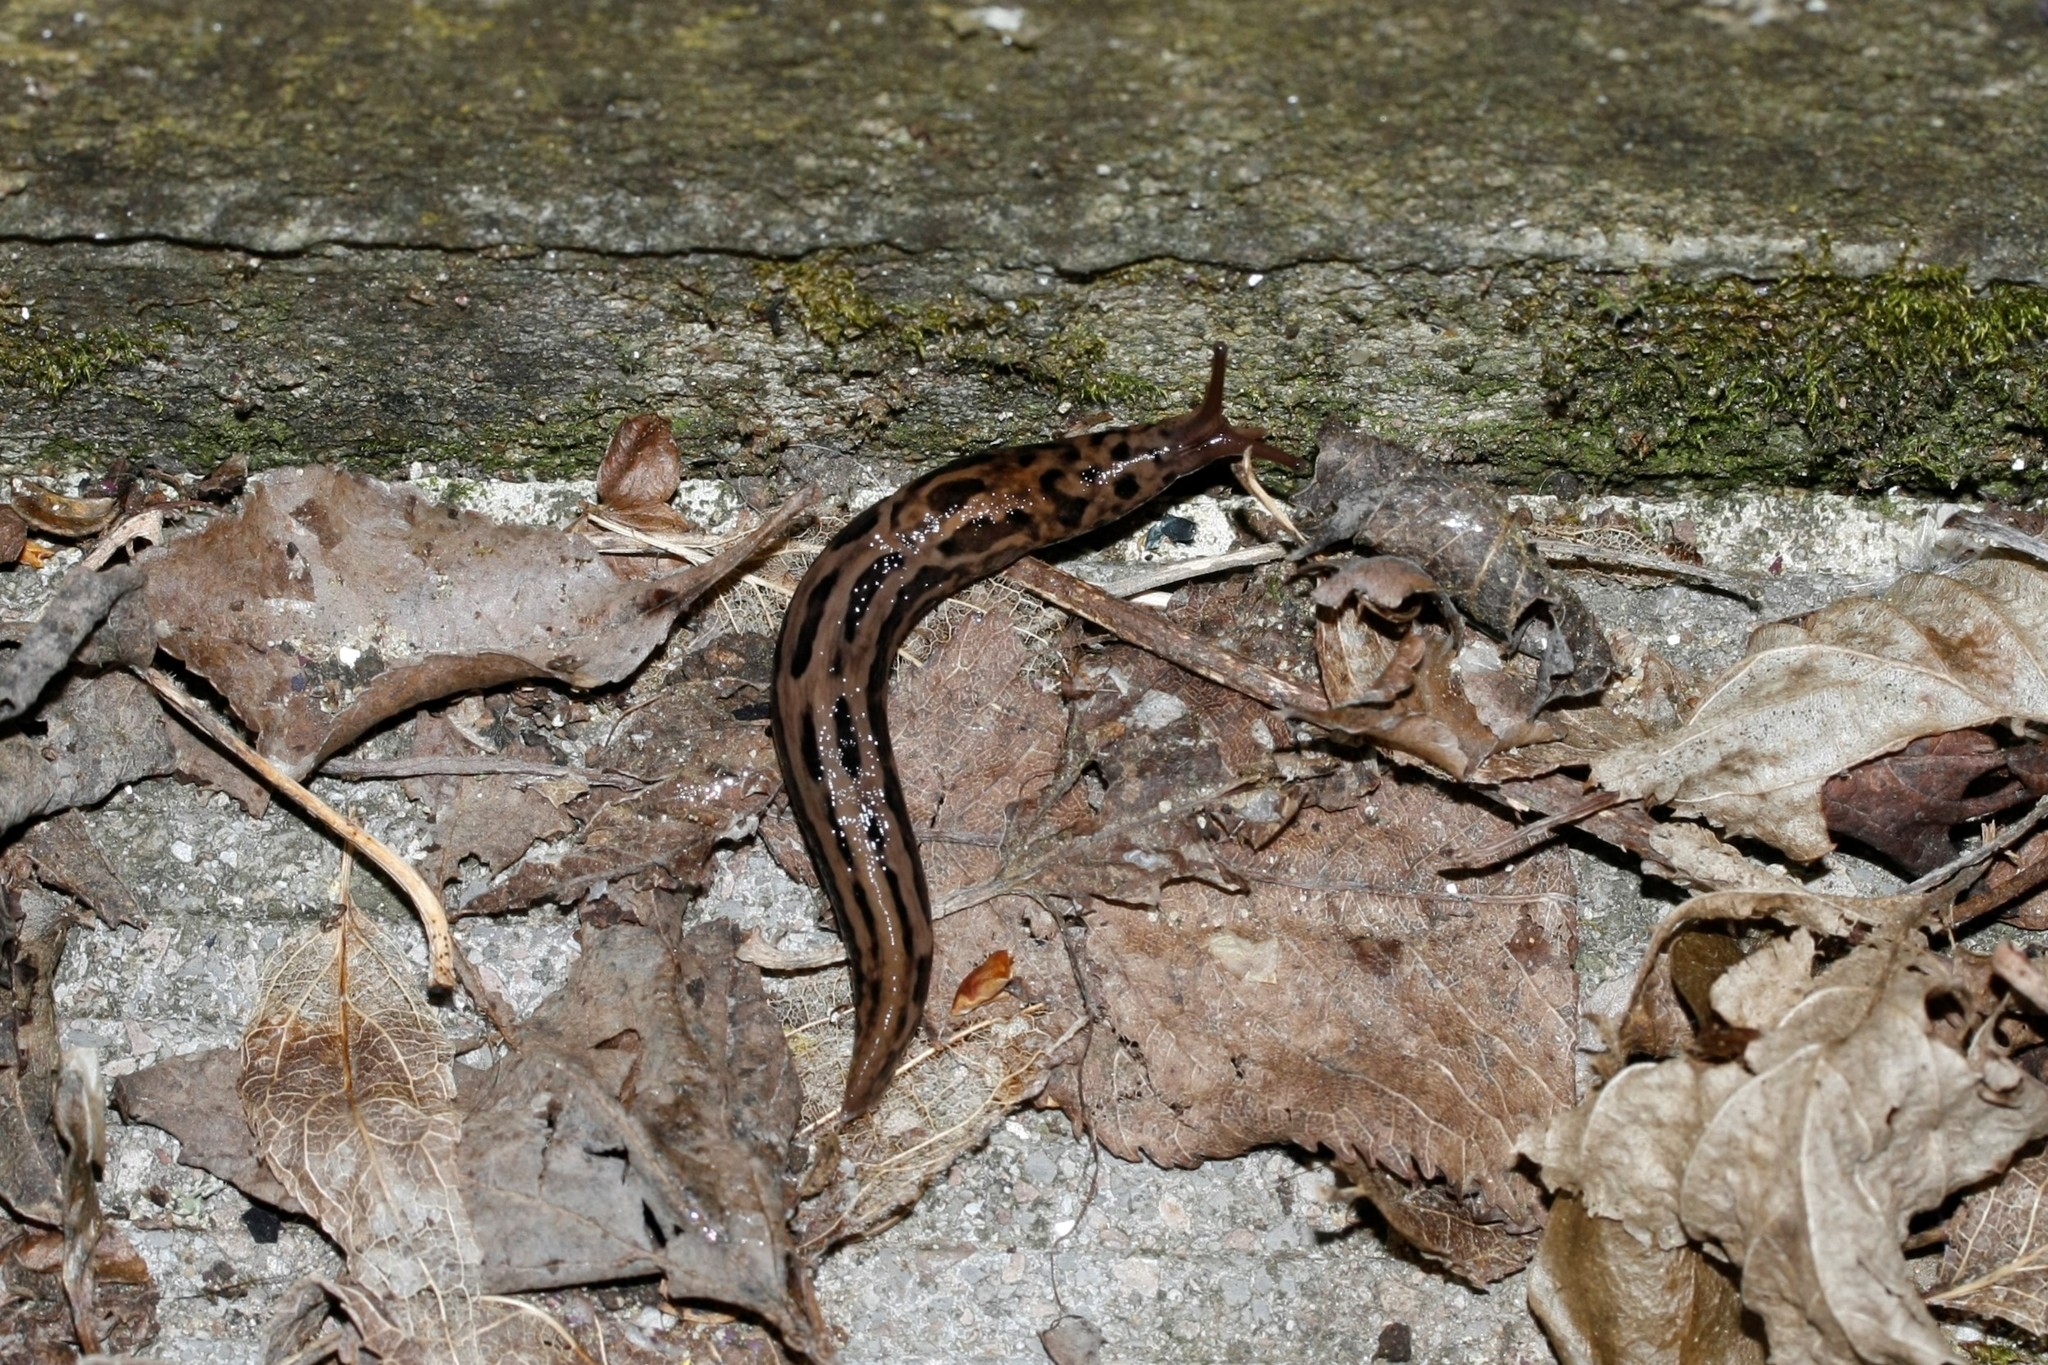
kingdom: Animalia
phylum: Mollusca
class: Gastropoda
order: Stylommatophora
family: Limacidae
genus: Limax
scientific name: Limax maximus
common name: Great grey slug
